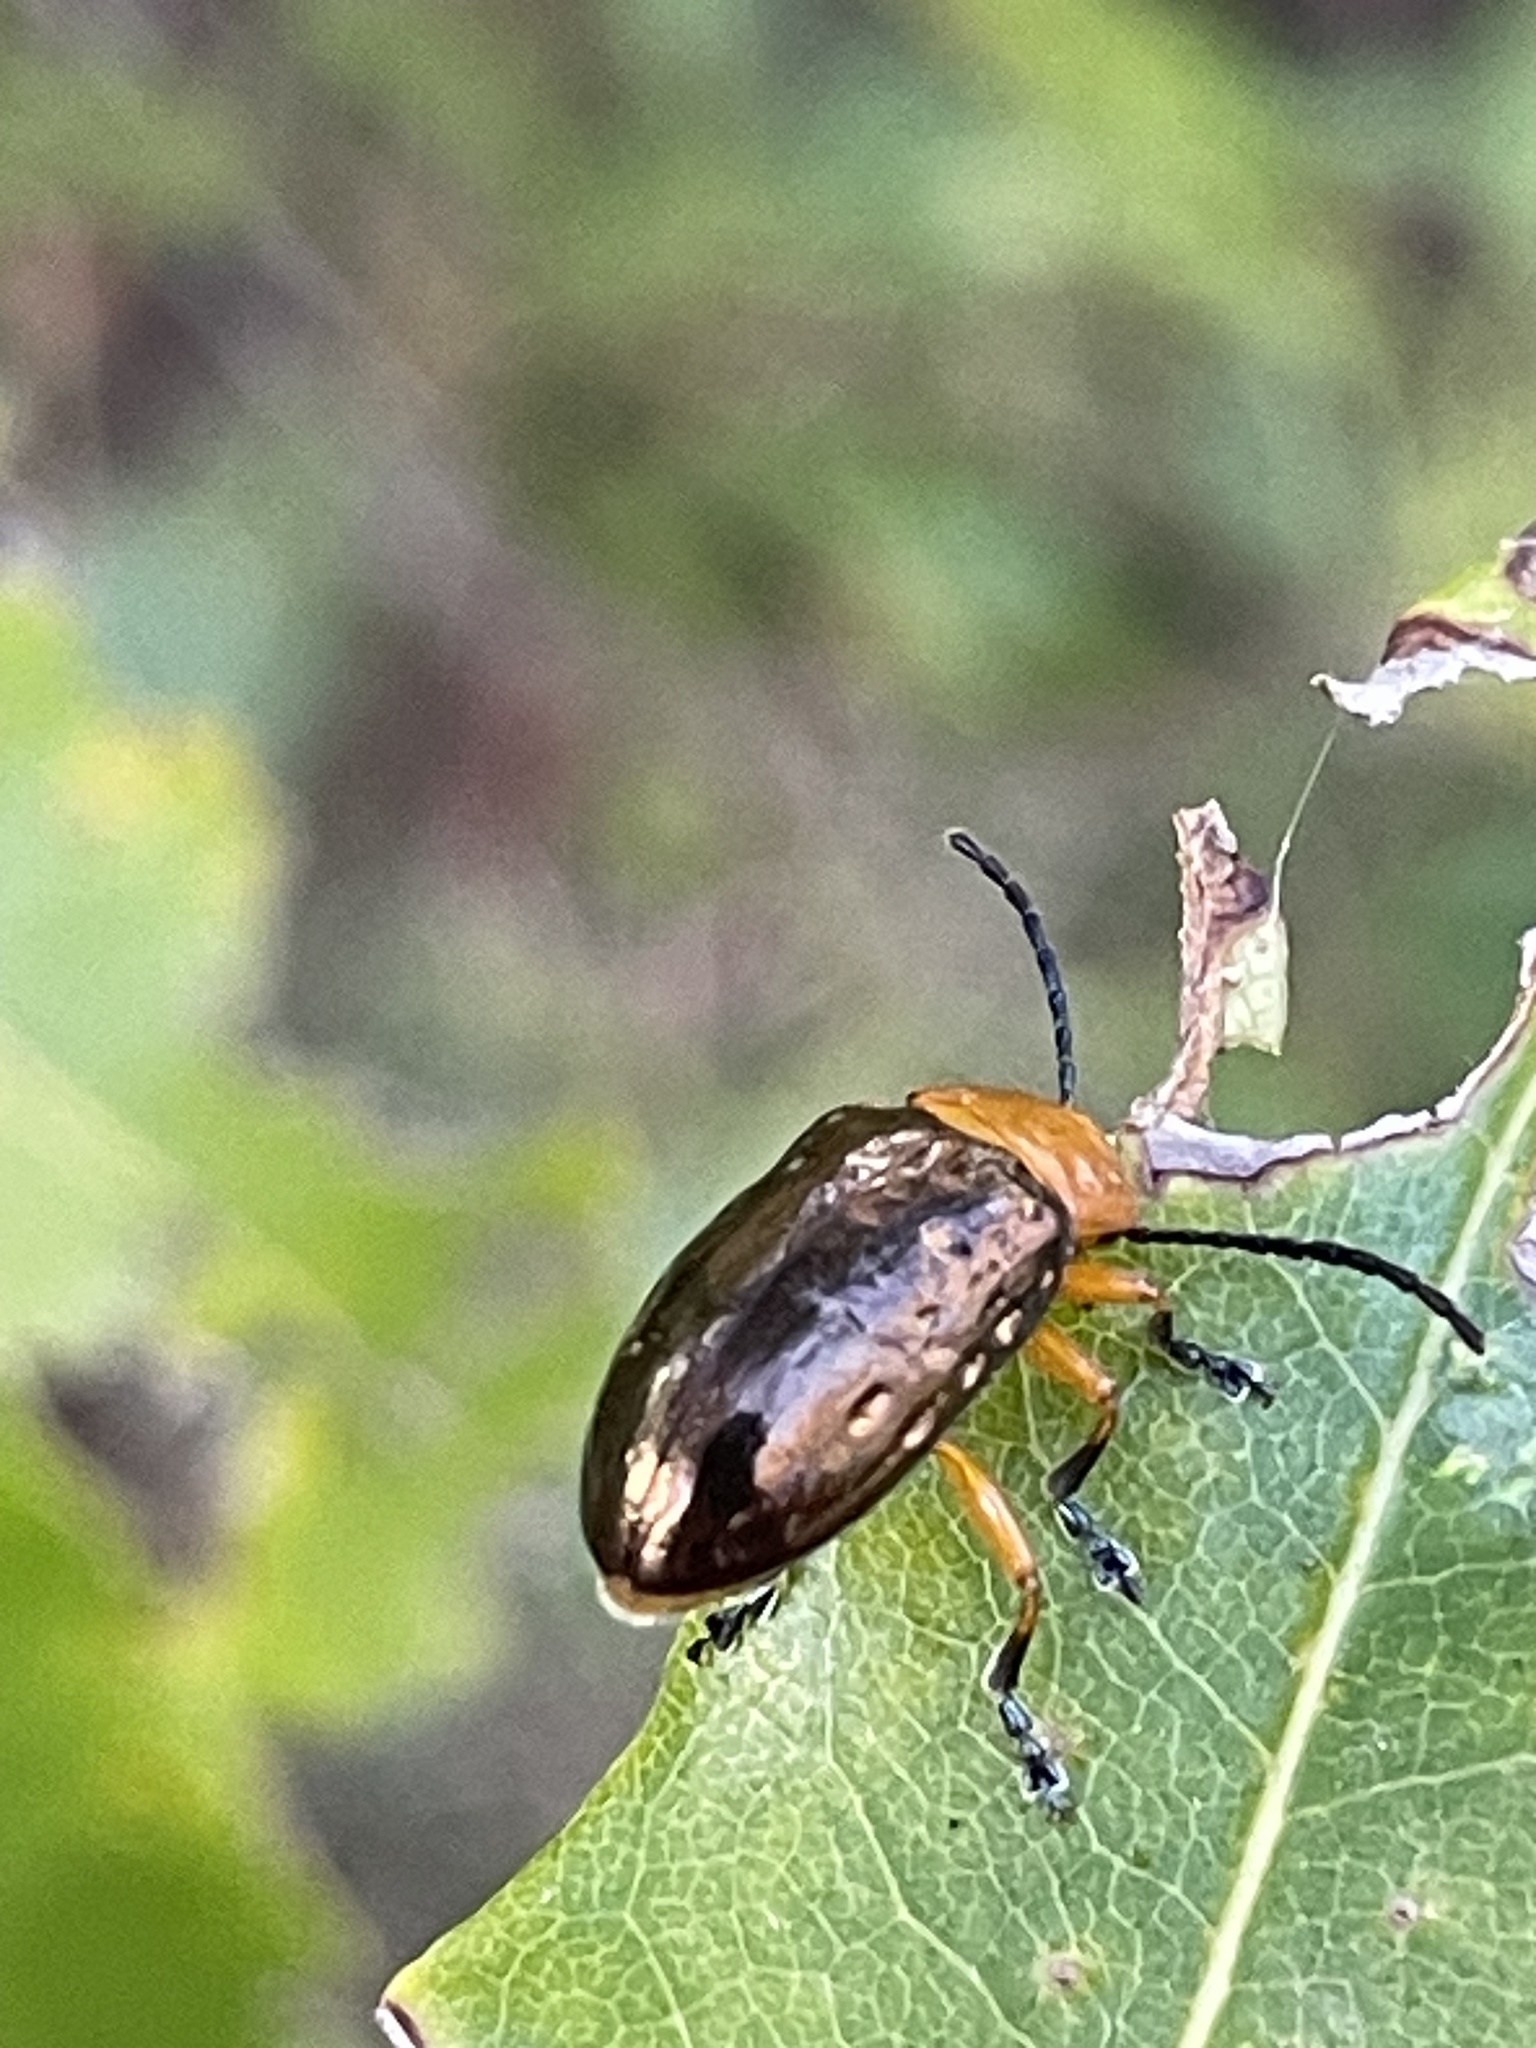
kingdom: Animalia
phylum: Arthropoda
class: Insecta
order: Coleoptera
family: Chrysomelidae
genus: Lamprolina
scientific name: Lamprolina
